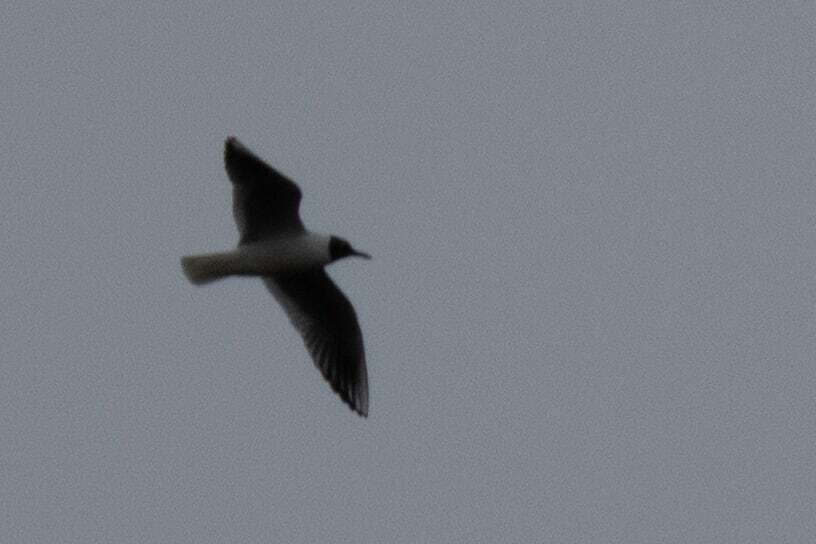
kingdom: Animalia
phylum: Chordata
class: Aves
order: Charadriiformes
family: Laridae
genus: Chroicocephalus
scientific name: Chroicocephalus ridibundus
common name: Black-headed gull
